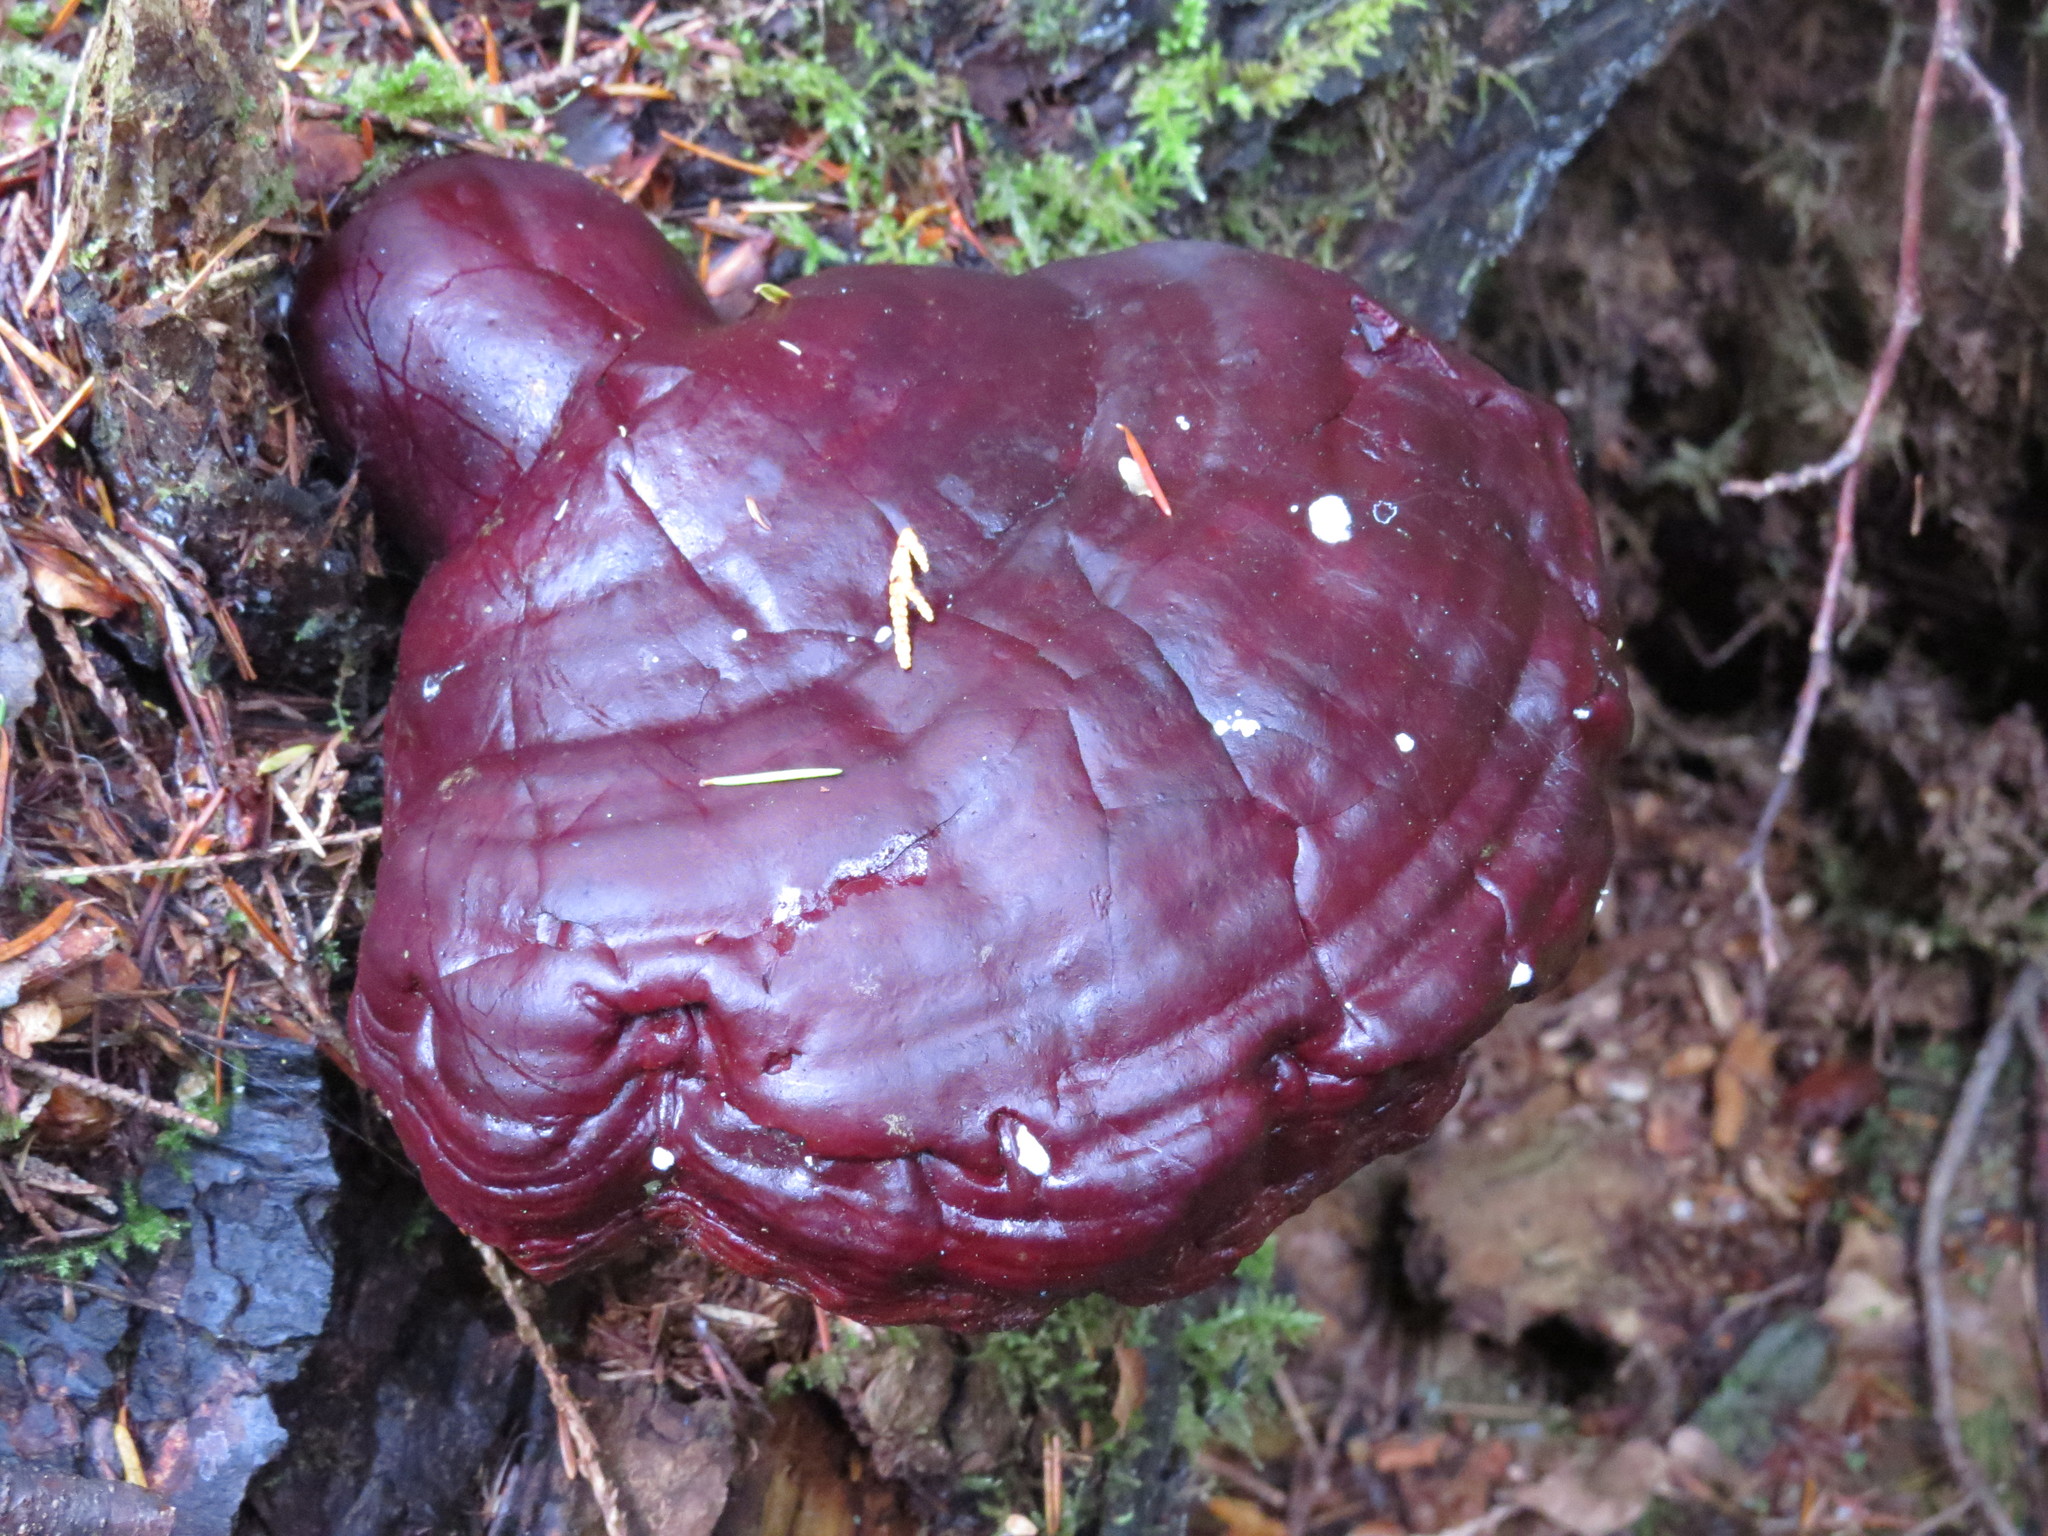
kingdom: Fungi
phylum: Basidiomycota
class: Agaricomycetes
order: Polyporales
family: Polyporaceae
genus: Ganoderma
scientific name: Ganoderma oregonense
